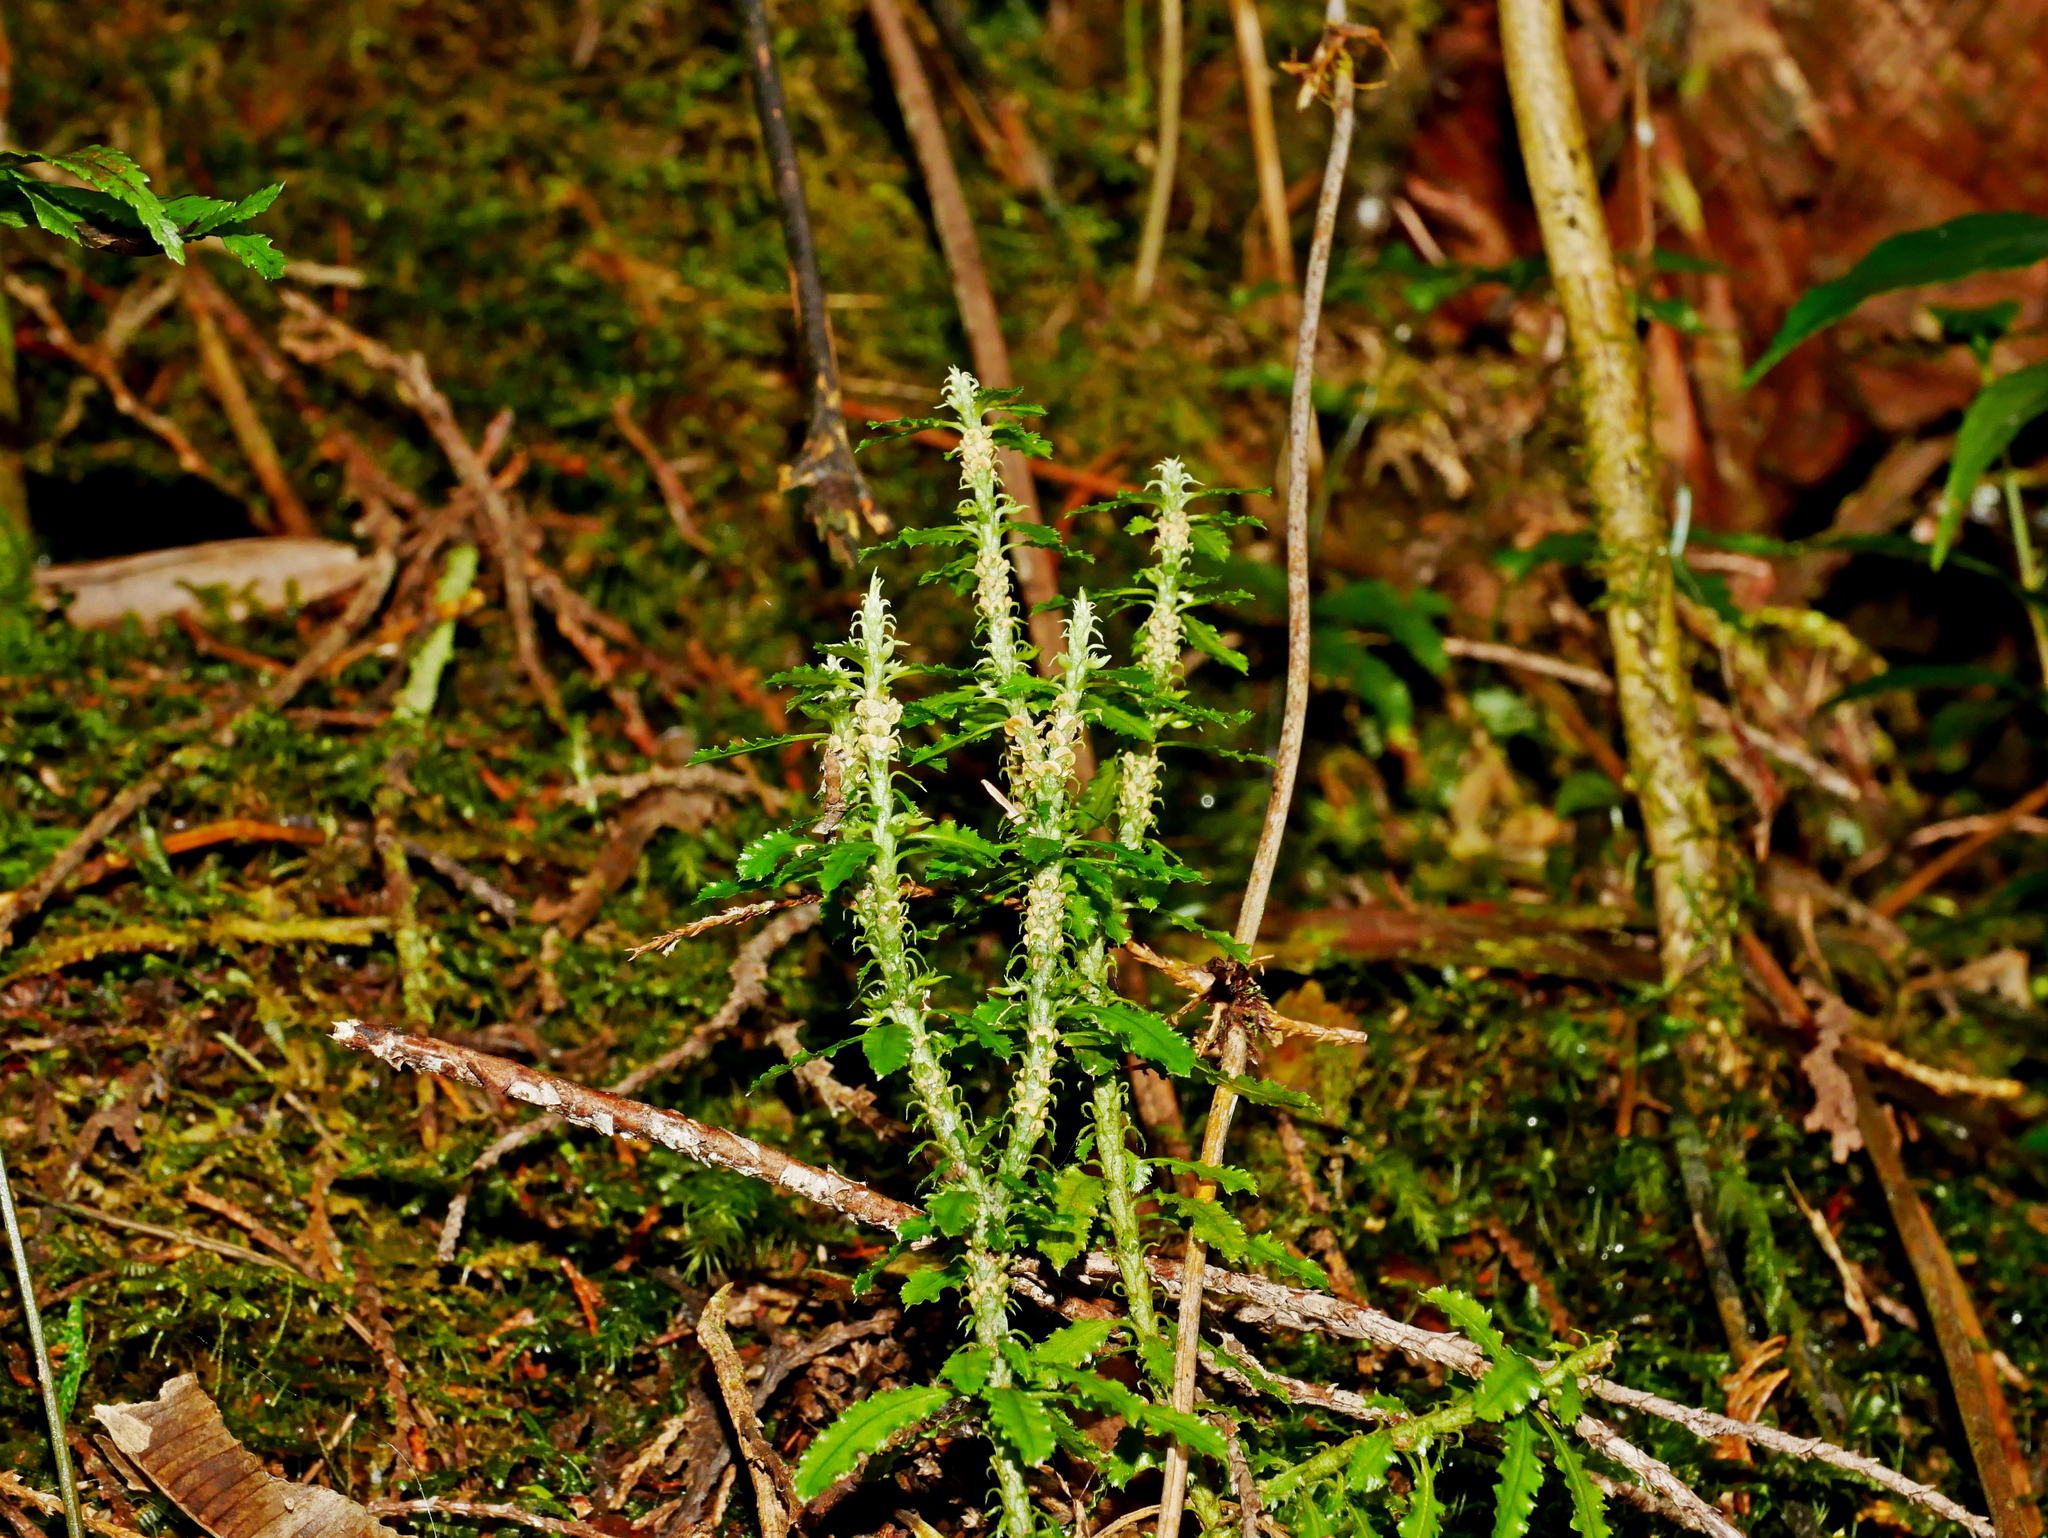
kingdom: Plantae
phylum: Tracheophyta
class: Lycopodiopsida
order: Lycopodiales
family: Lycopodiaceae
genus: Huperzia
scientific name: Huperzia javanica
